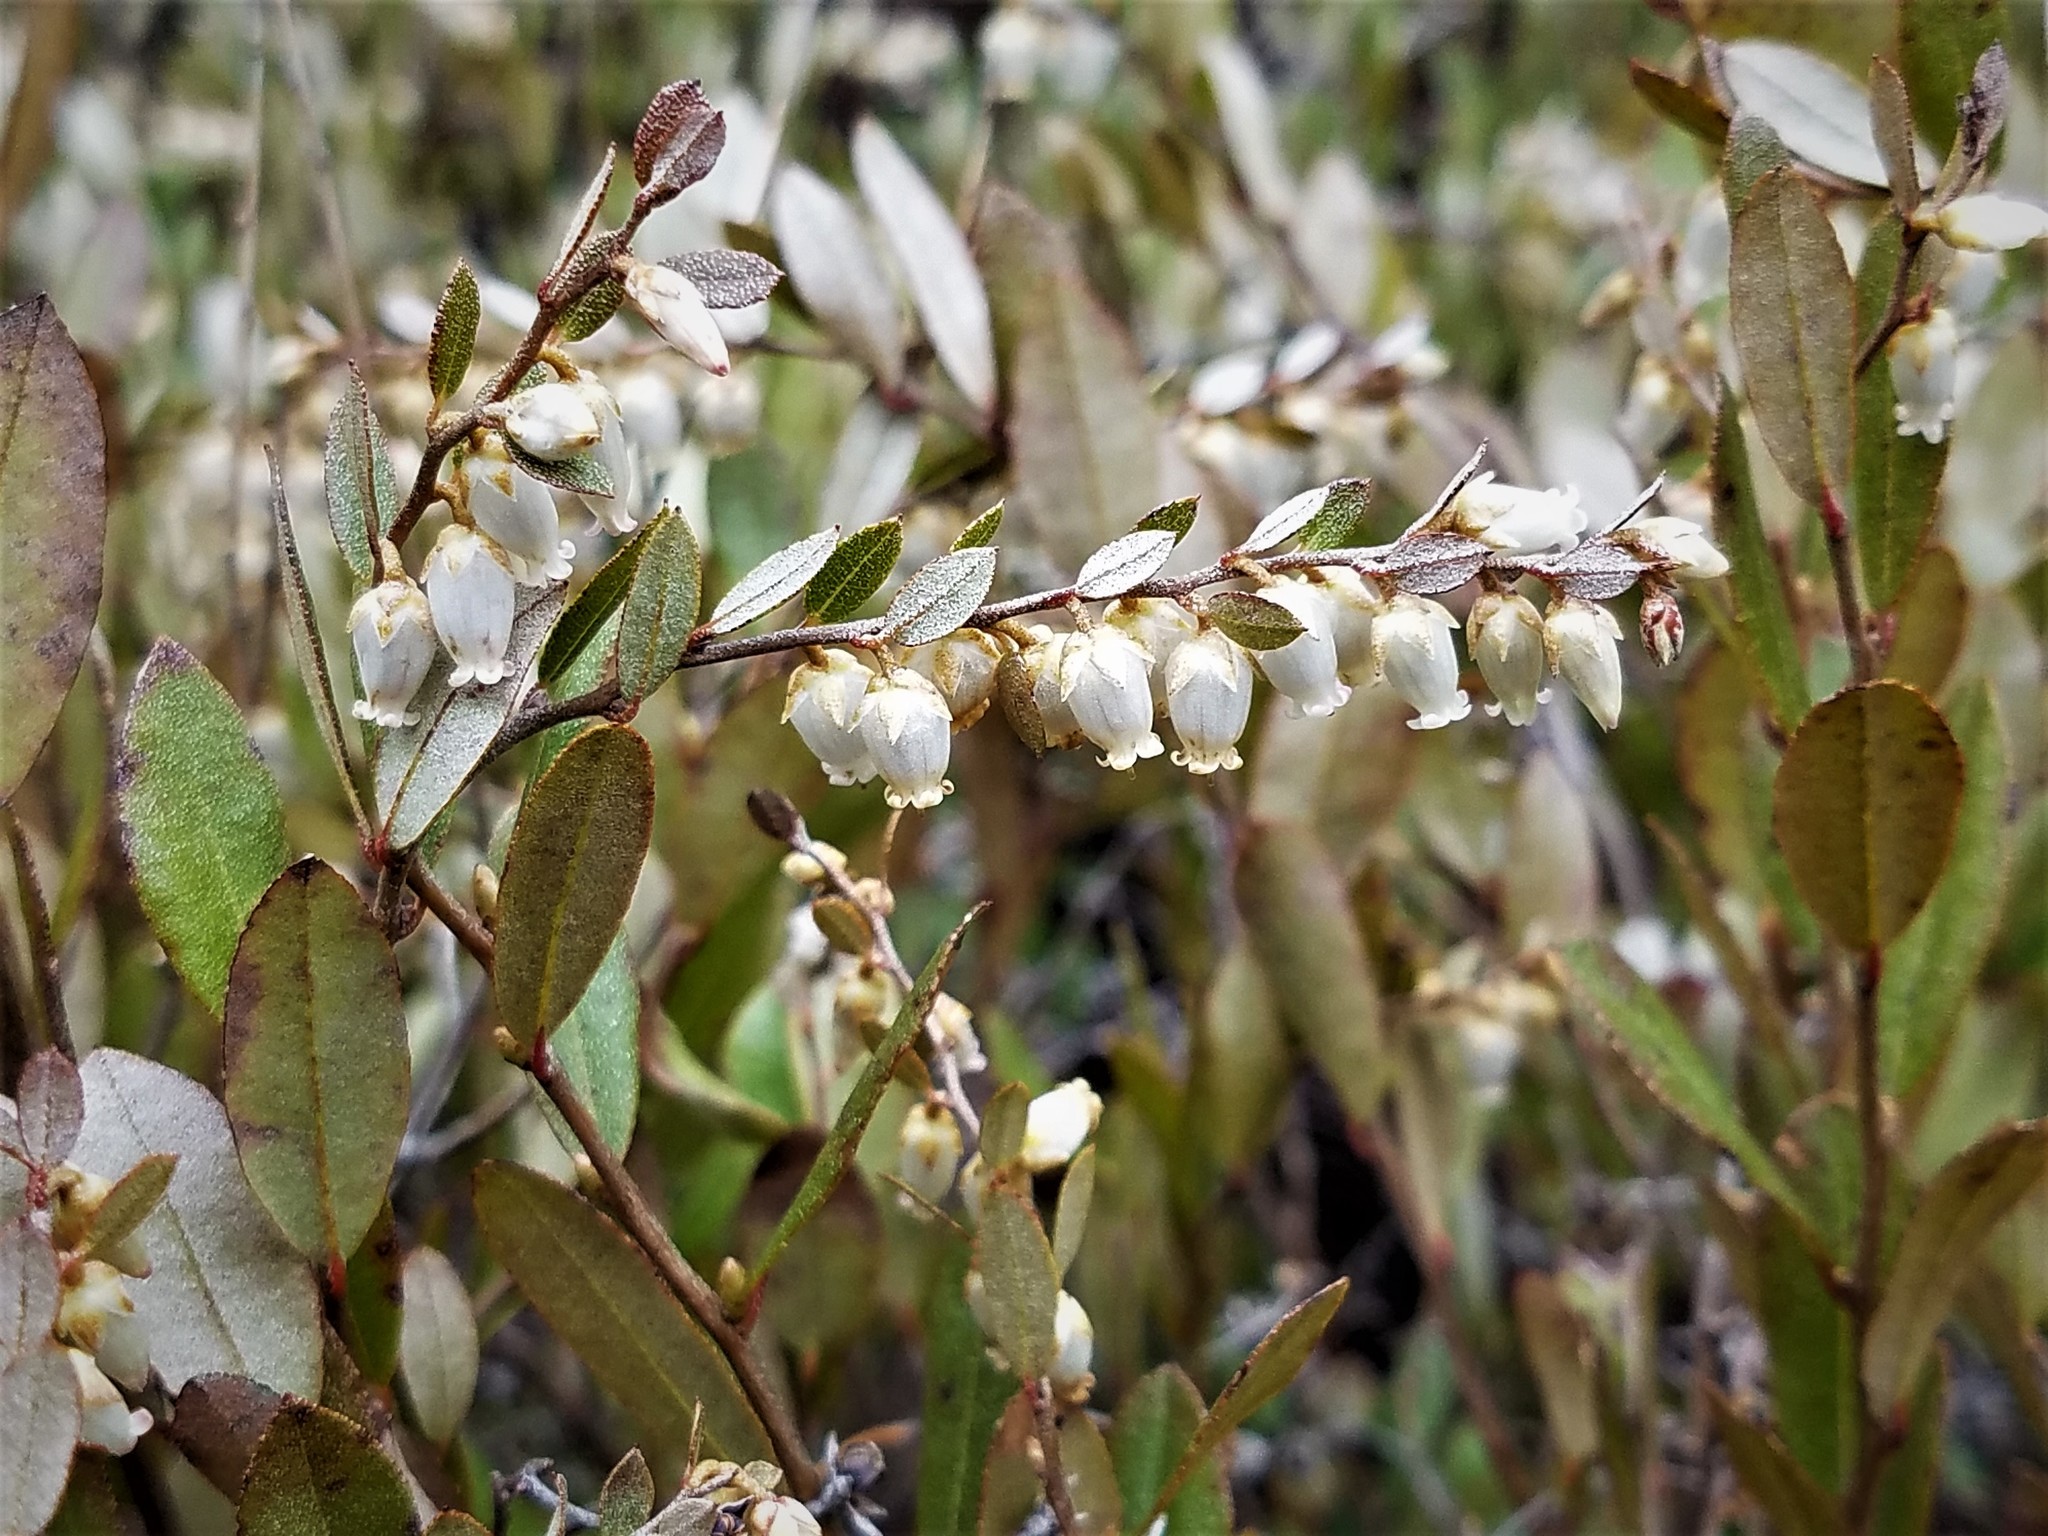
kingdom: Plantae
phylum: Tracheophyta
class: Magnoliopsida
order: Ericales
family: Ericaceae
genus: Chamaedaphne
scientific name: Chamaedaphne calyculata
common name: Leatherleaf
